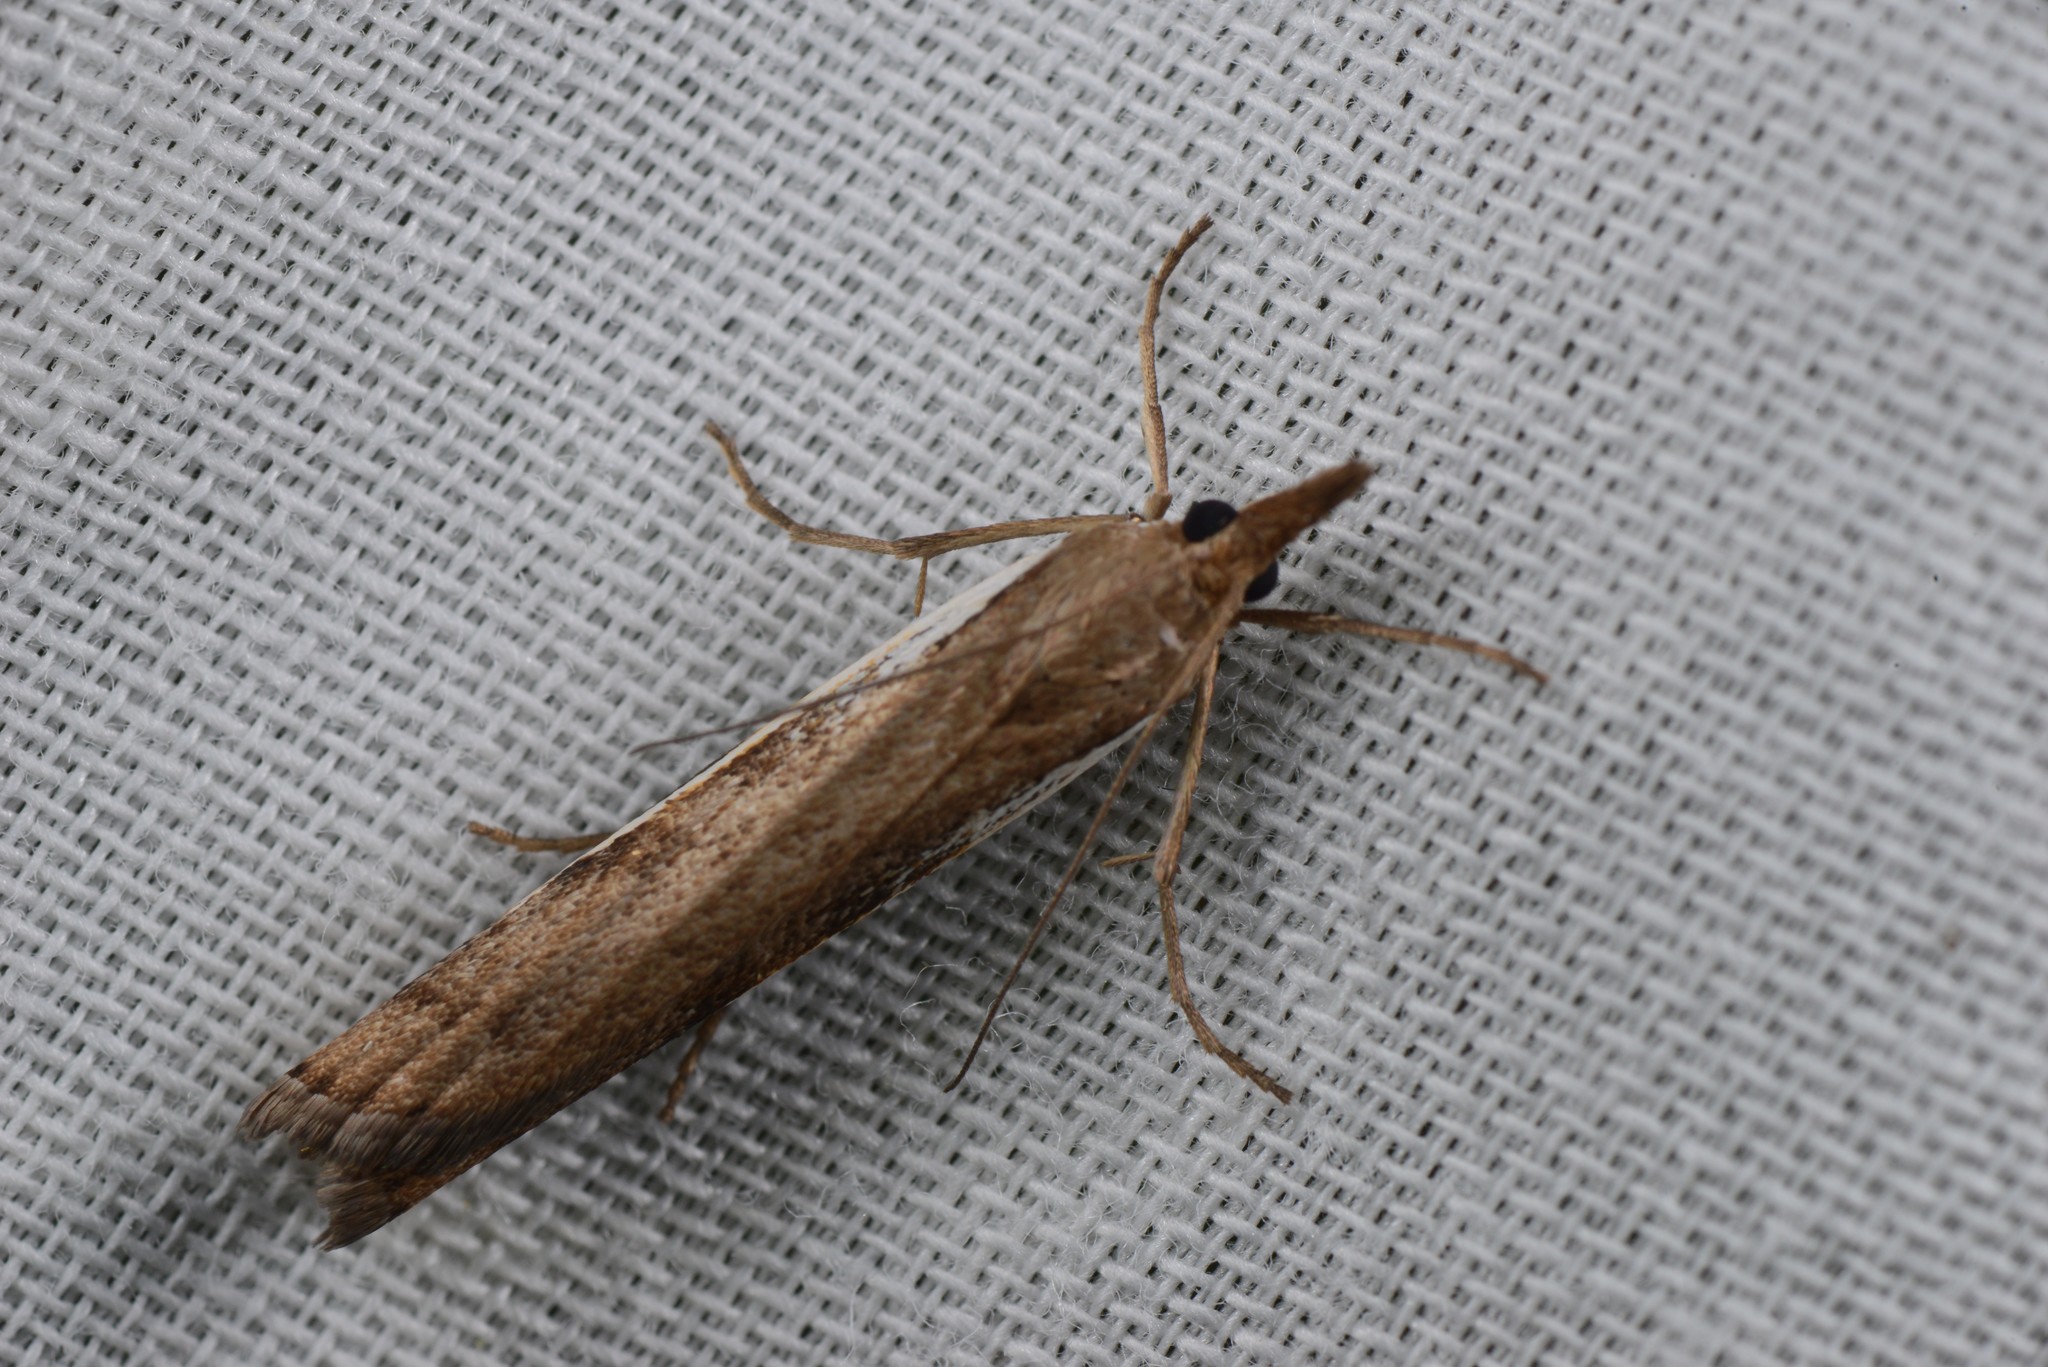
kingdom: Animalia
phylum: Arthropoda
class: Insecta
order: Lepidoptera
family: Crambidae
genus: Orocrambus
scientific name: Orocrambus flexuosellus
